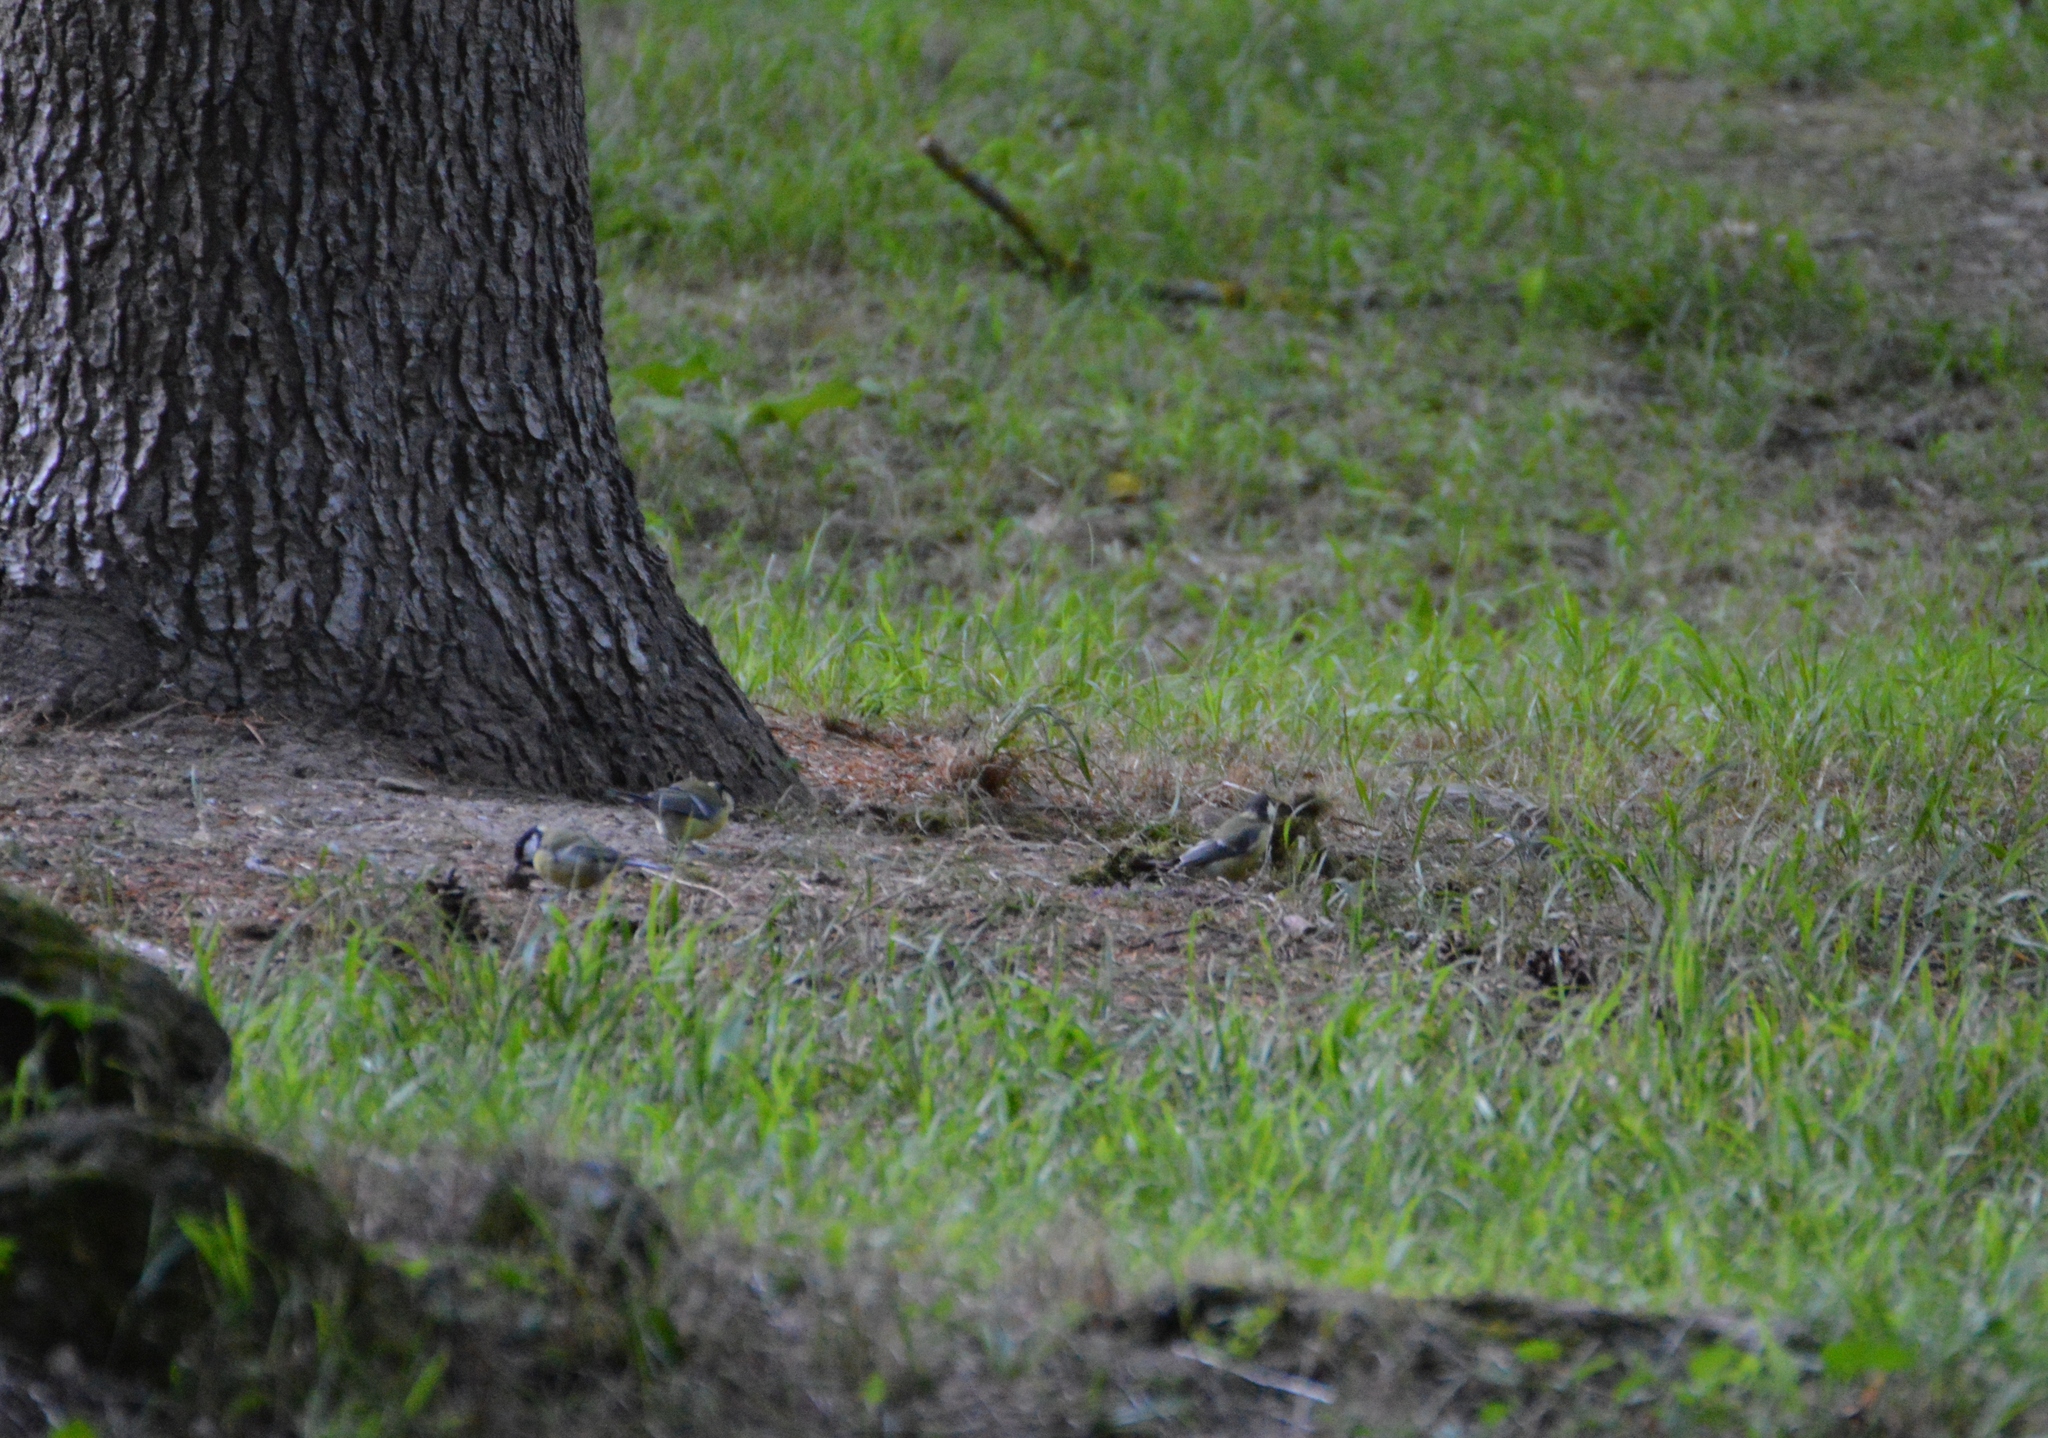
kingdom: Animalia
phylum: Chordata
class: Aves
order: Passeriformes
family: Paridae
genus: Parus
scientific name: Parus major
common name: Great tit
